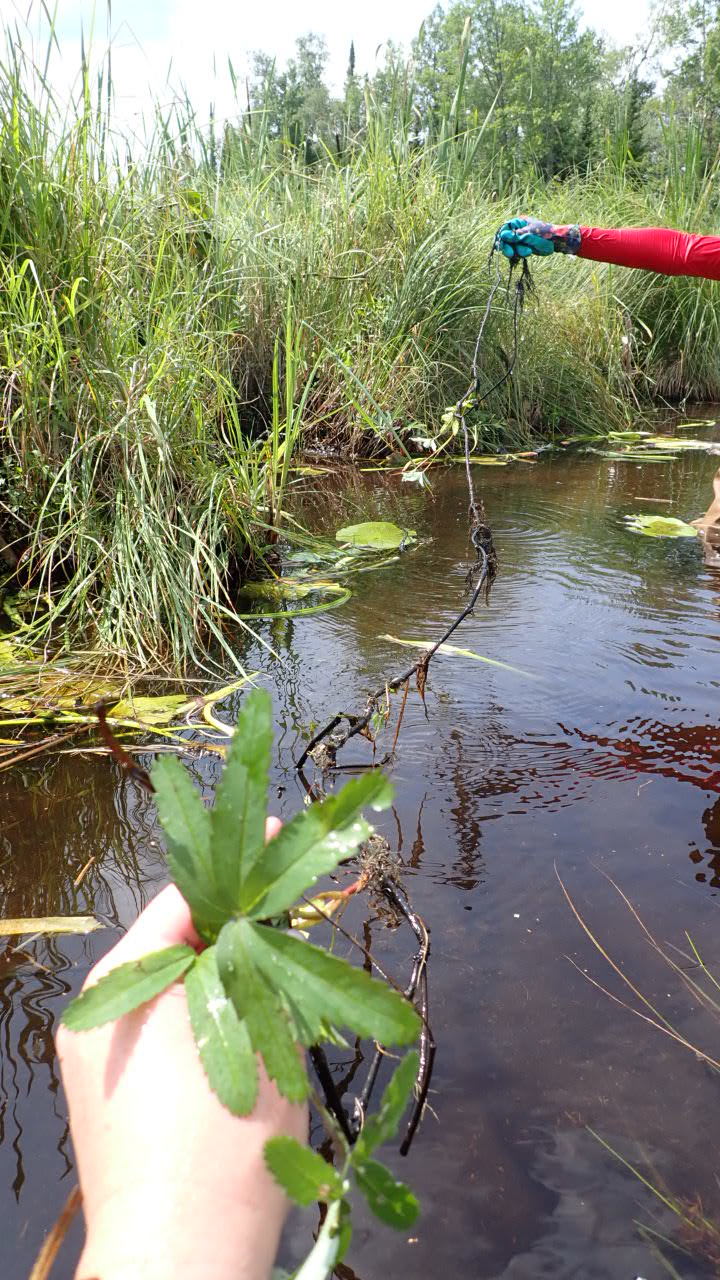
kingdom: Plantae
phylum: Tracheophyta
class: Magnoliopsida
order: Rosales
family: Rosaceae
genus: Comarum
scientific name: Comarum palustre
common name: Marsh cinquefoil
